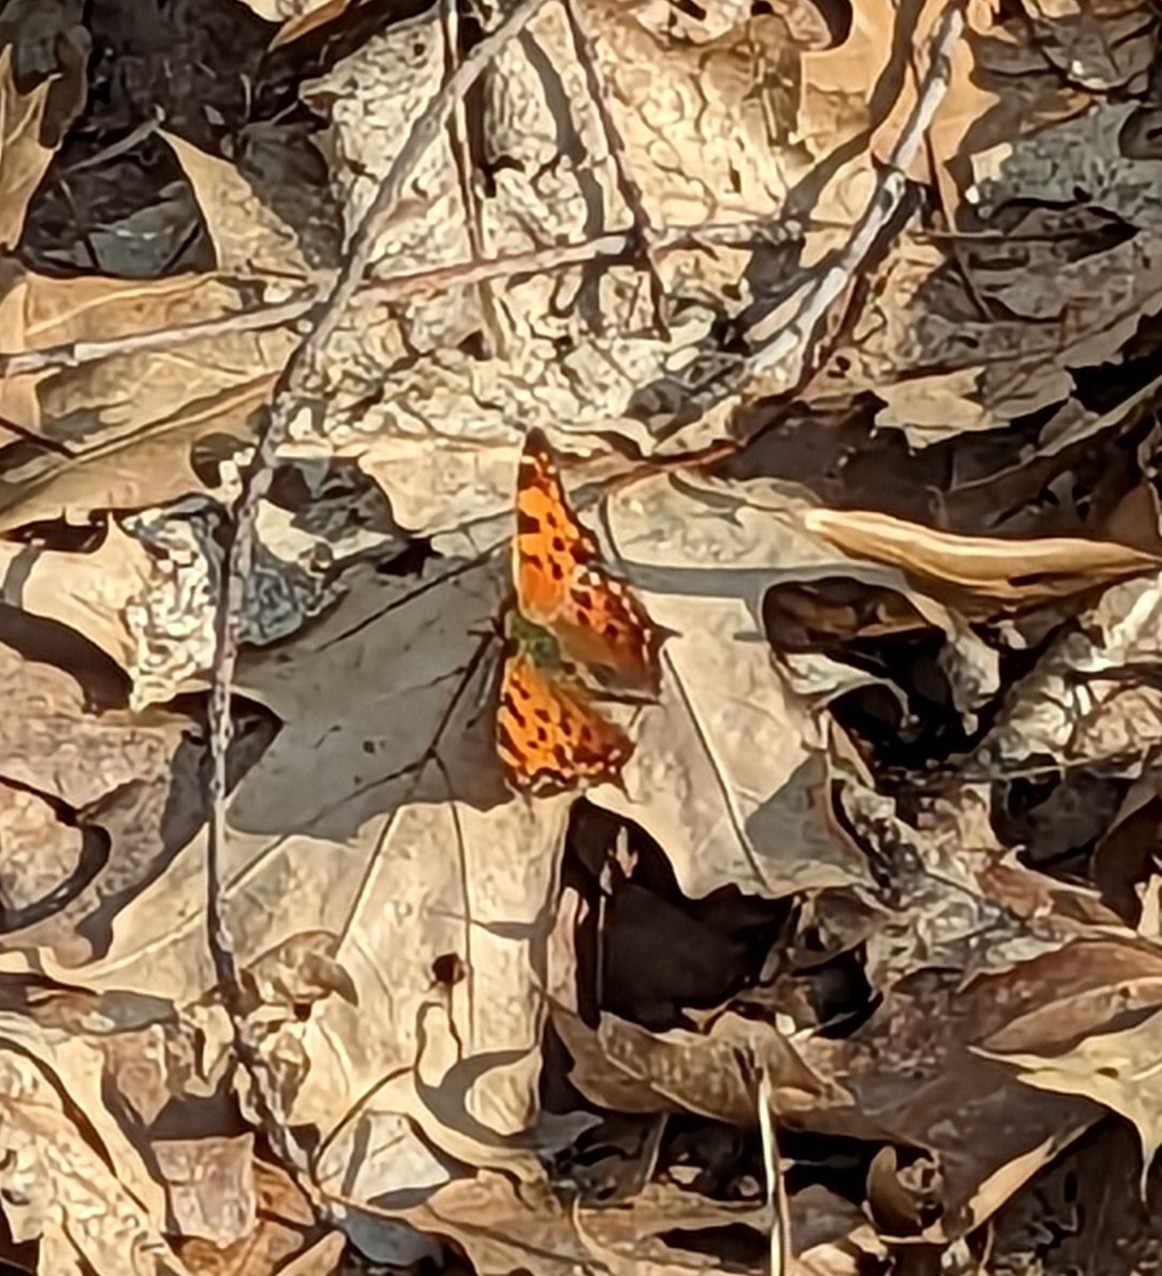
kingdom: Animalia
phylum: Arthropoda
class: Insecta
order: Lepidoptera
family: Nymphalidae
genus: Polygonia
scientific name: Polygonia comma
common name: Eastern comma
